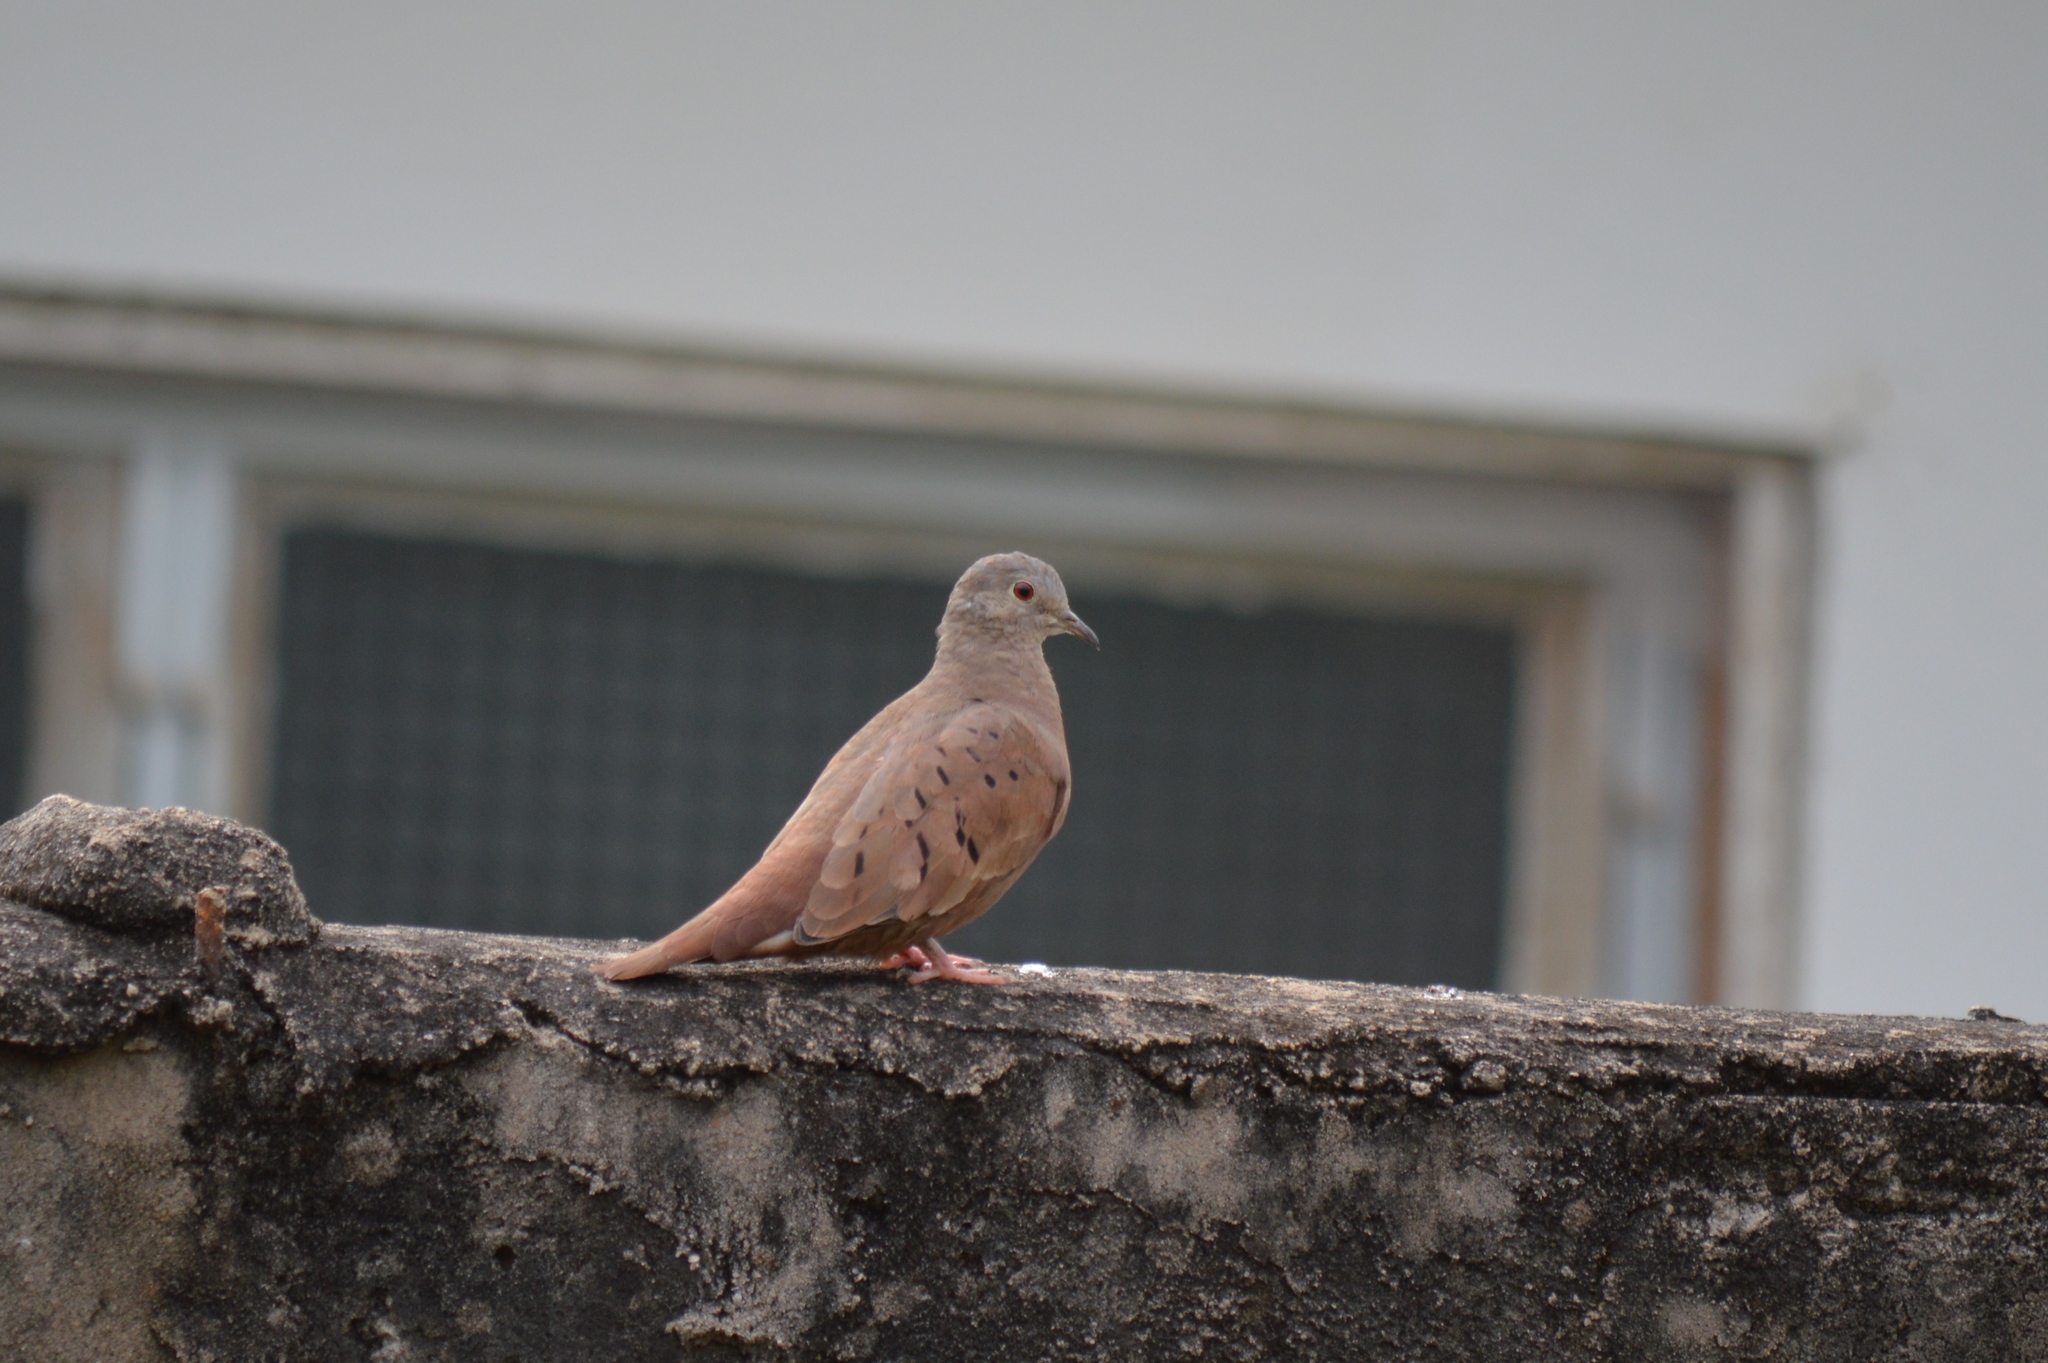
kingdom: Animalia
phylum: Chordata
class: Aves
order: Columbiformes
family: Columbidae
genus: Columbina
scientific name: Columbina talpacoti
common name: Ruddy ground dove
